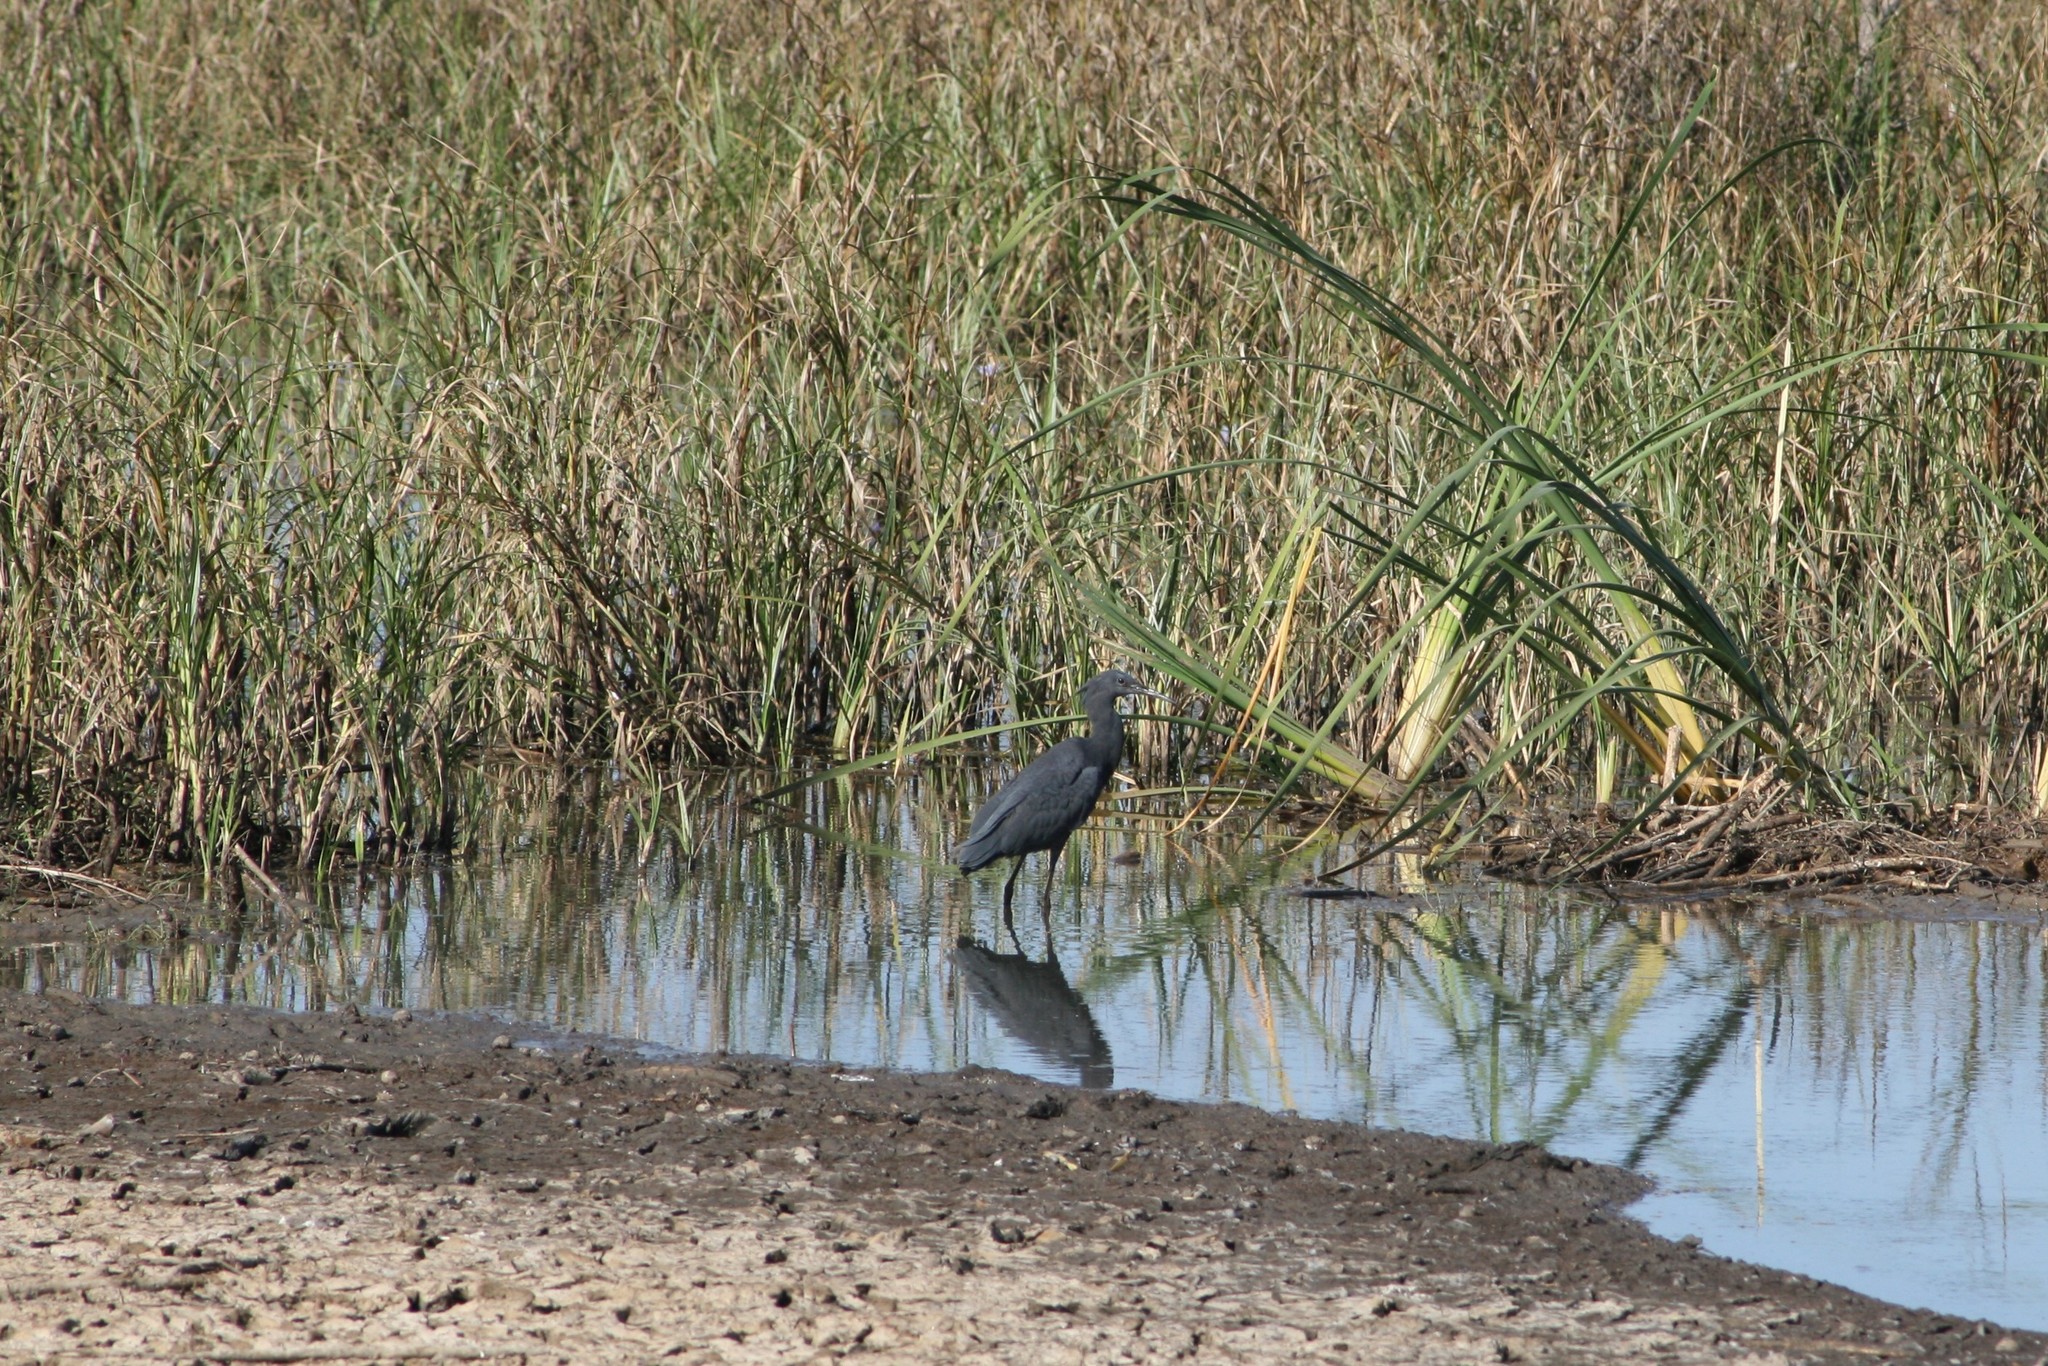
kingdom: Animalia
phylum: Chordata
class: Aves
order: Pelecaniformes
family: Ardeidae
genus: Egretta
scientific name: Egretta ardesiaca
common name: Black heron
